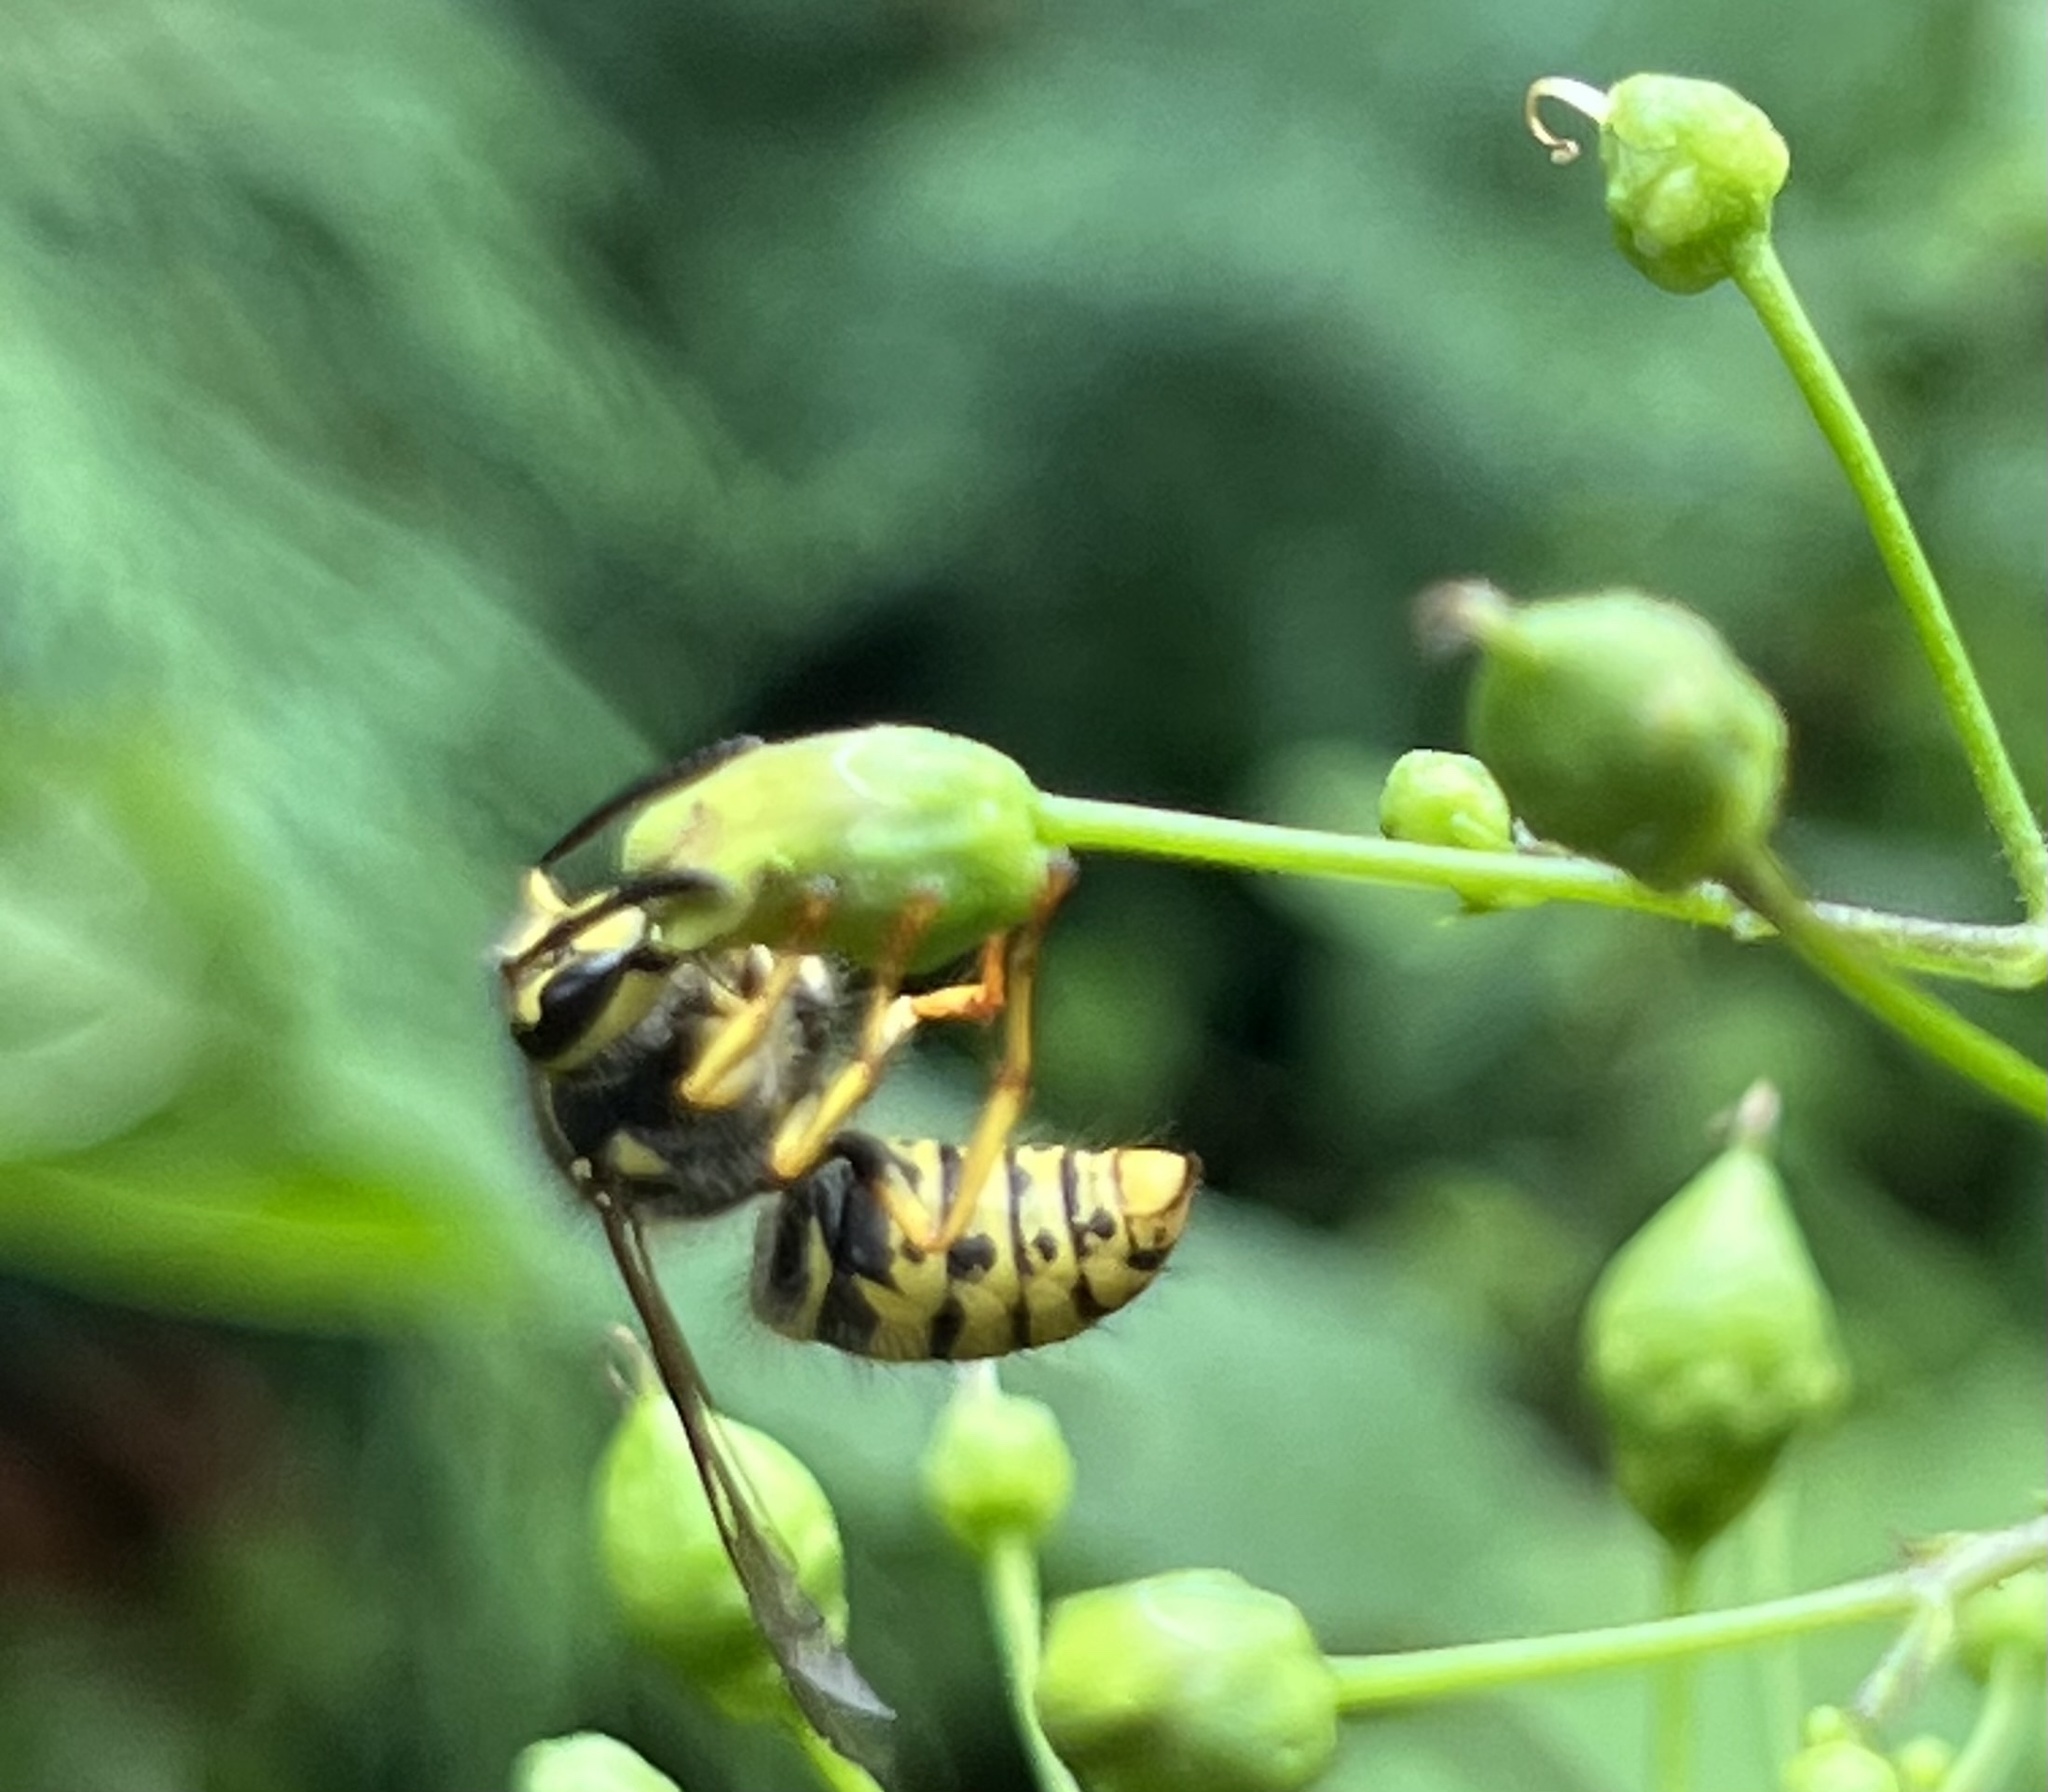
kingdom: Animalia
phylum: Arthropoda
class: Insecta
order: Hymenoptera
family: Vespidae
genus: Dolichovespula
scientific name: Dolichovespula arenaria
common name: Aerial yellowjacket
